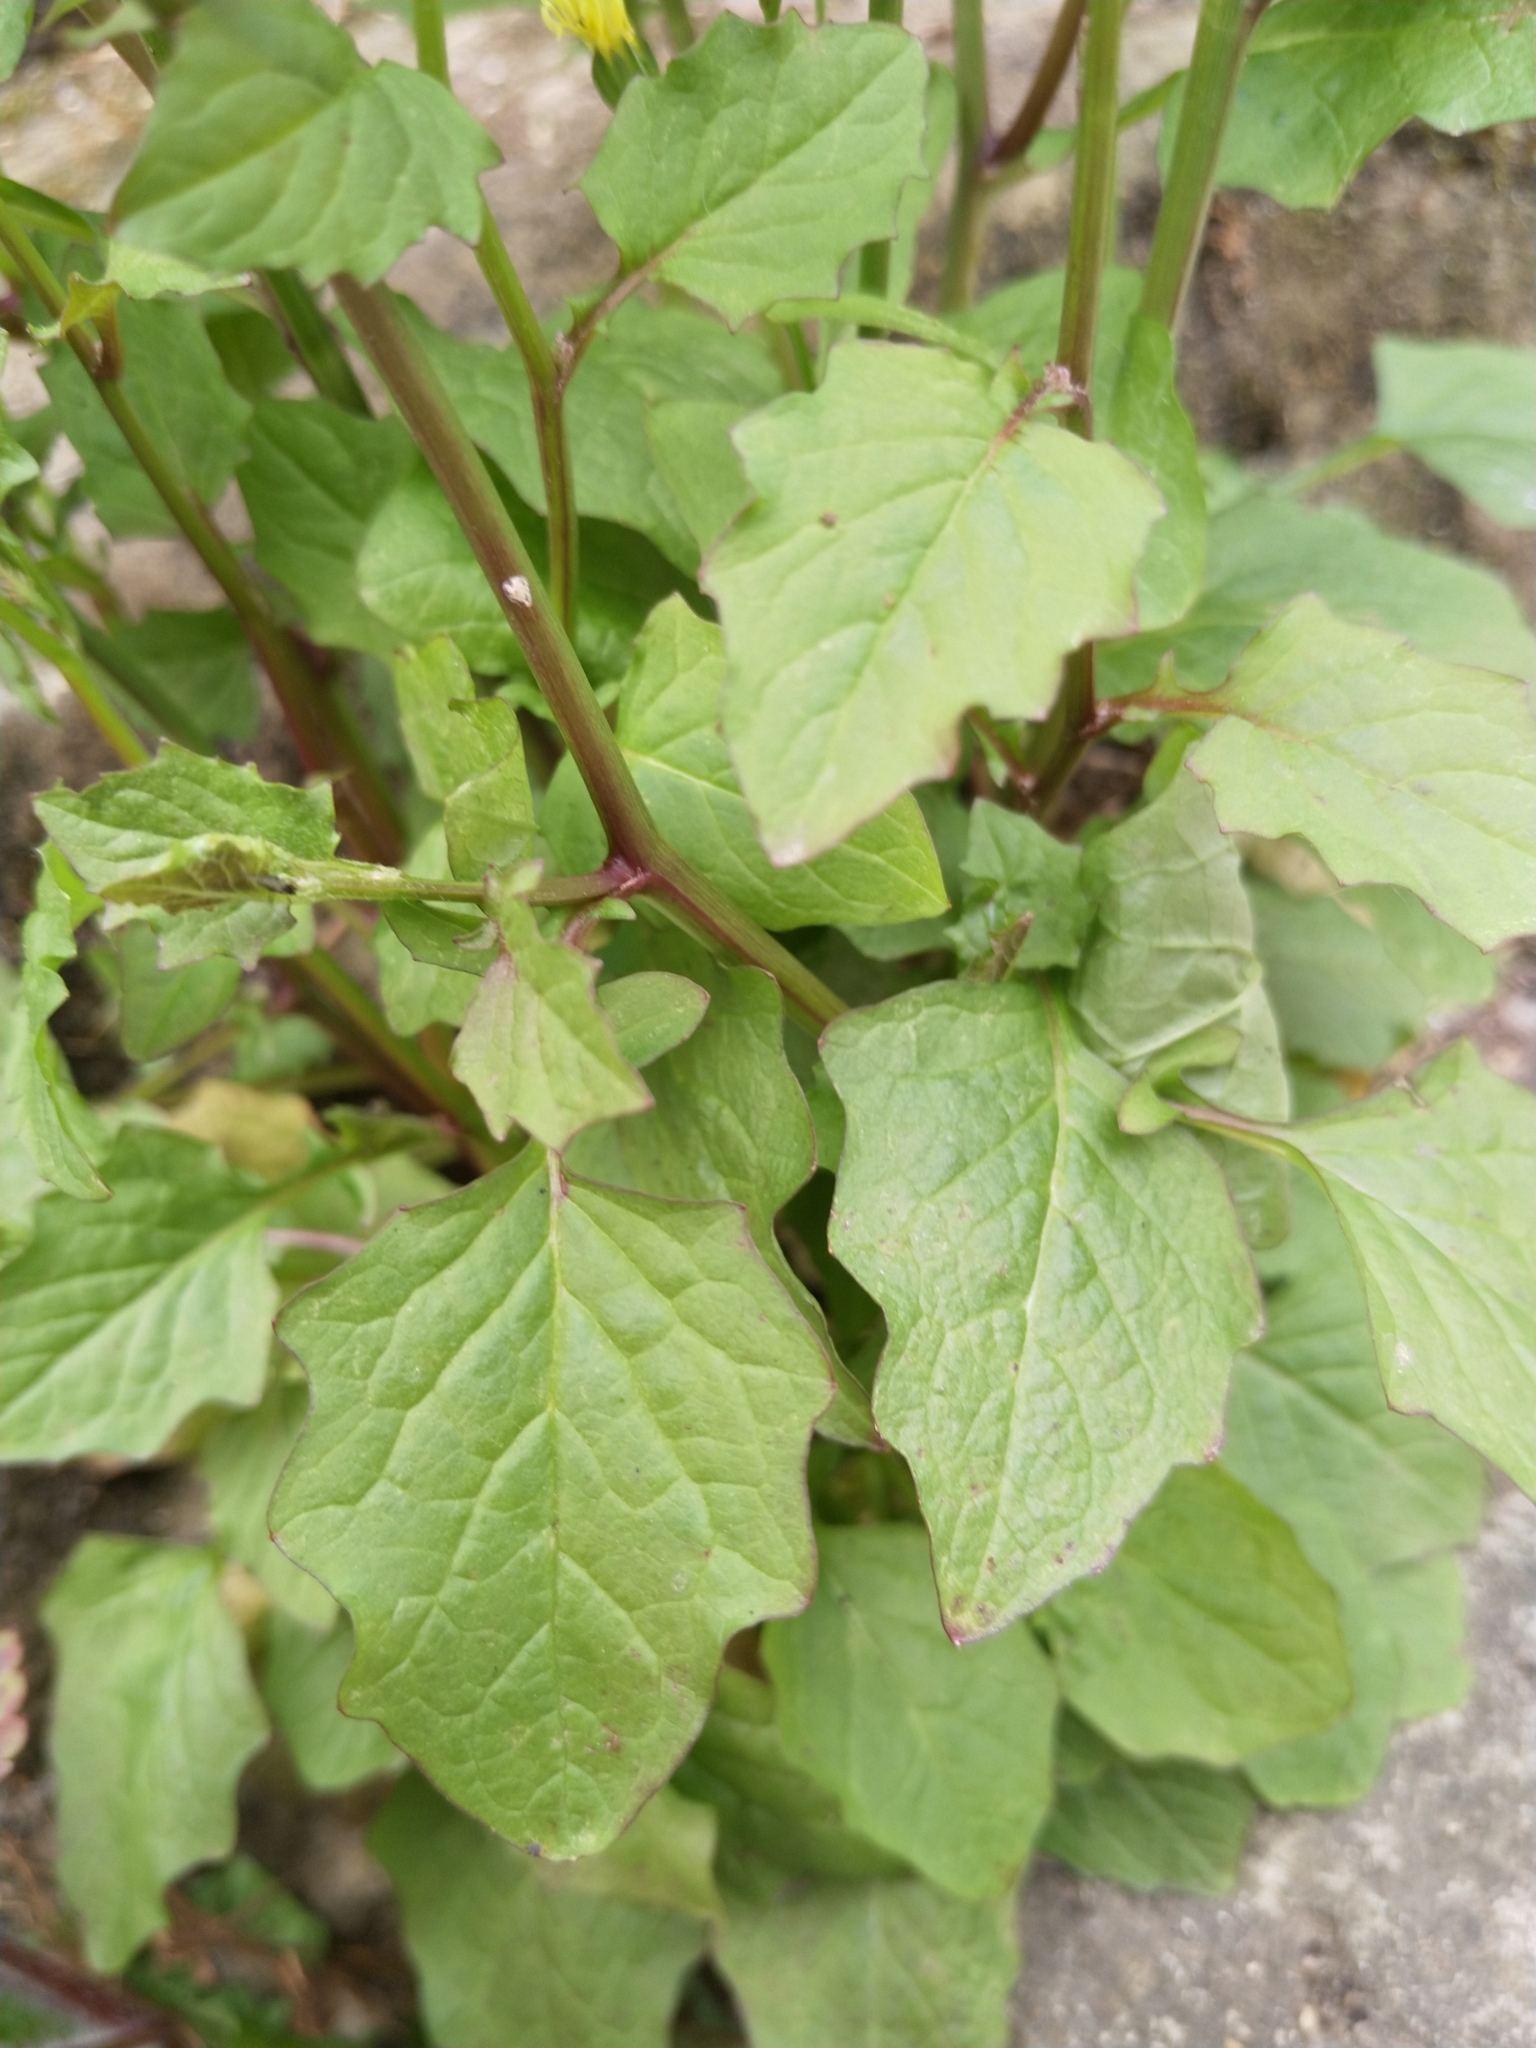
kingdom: Plantae
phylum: Tracheophyta
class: Magnoliopsida
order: Asterales
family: Asteraceae
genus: Lapsana
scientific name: Lapsana communis
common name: Nipplewort
